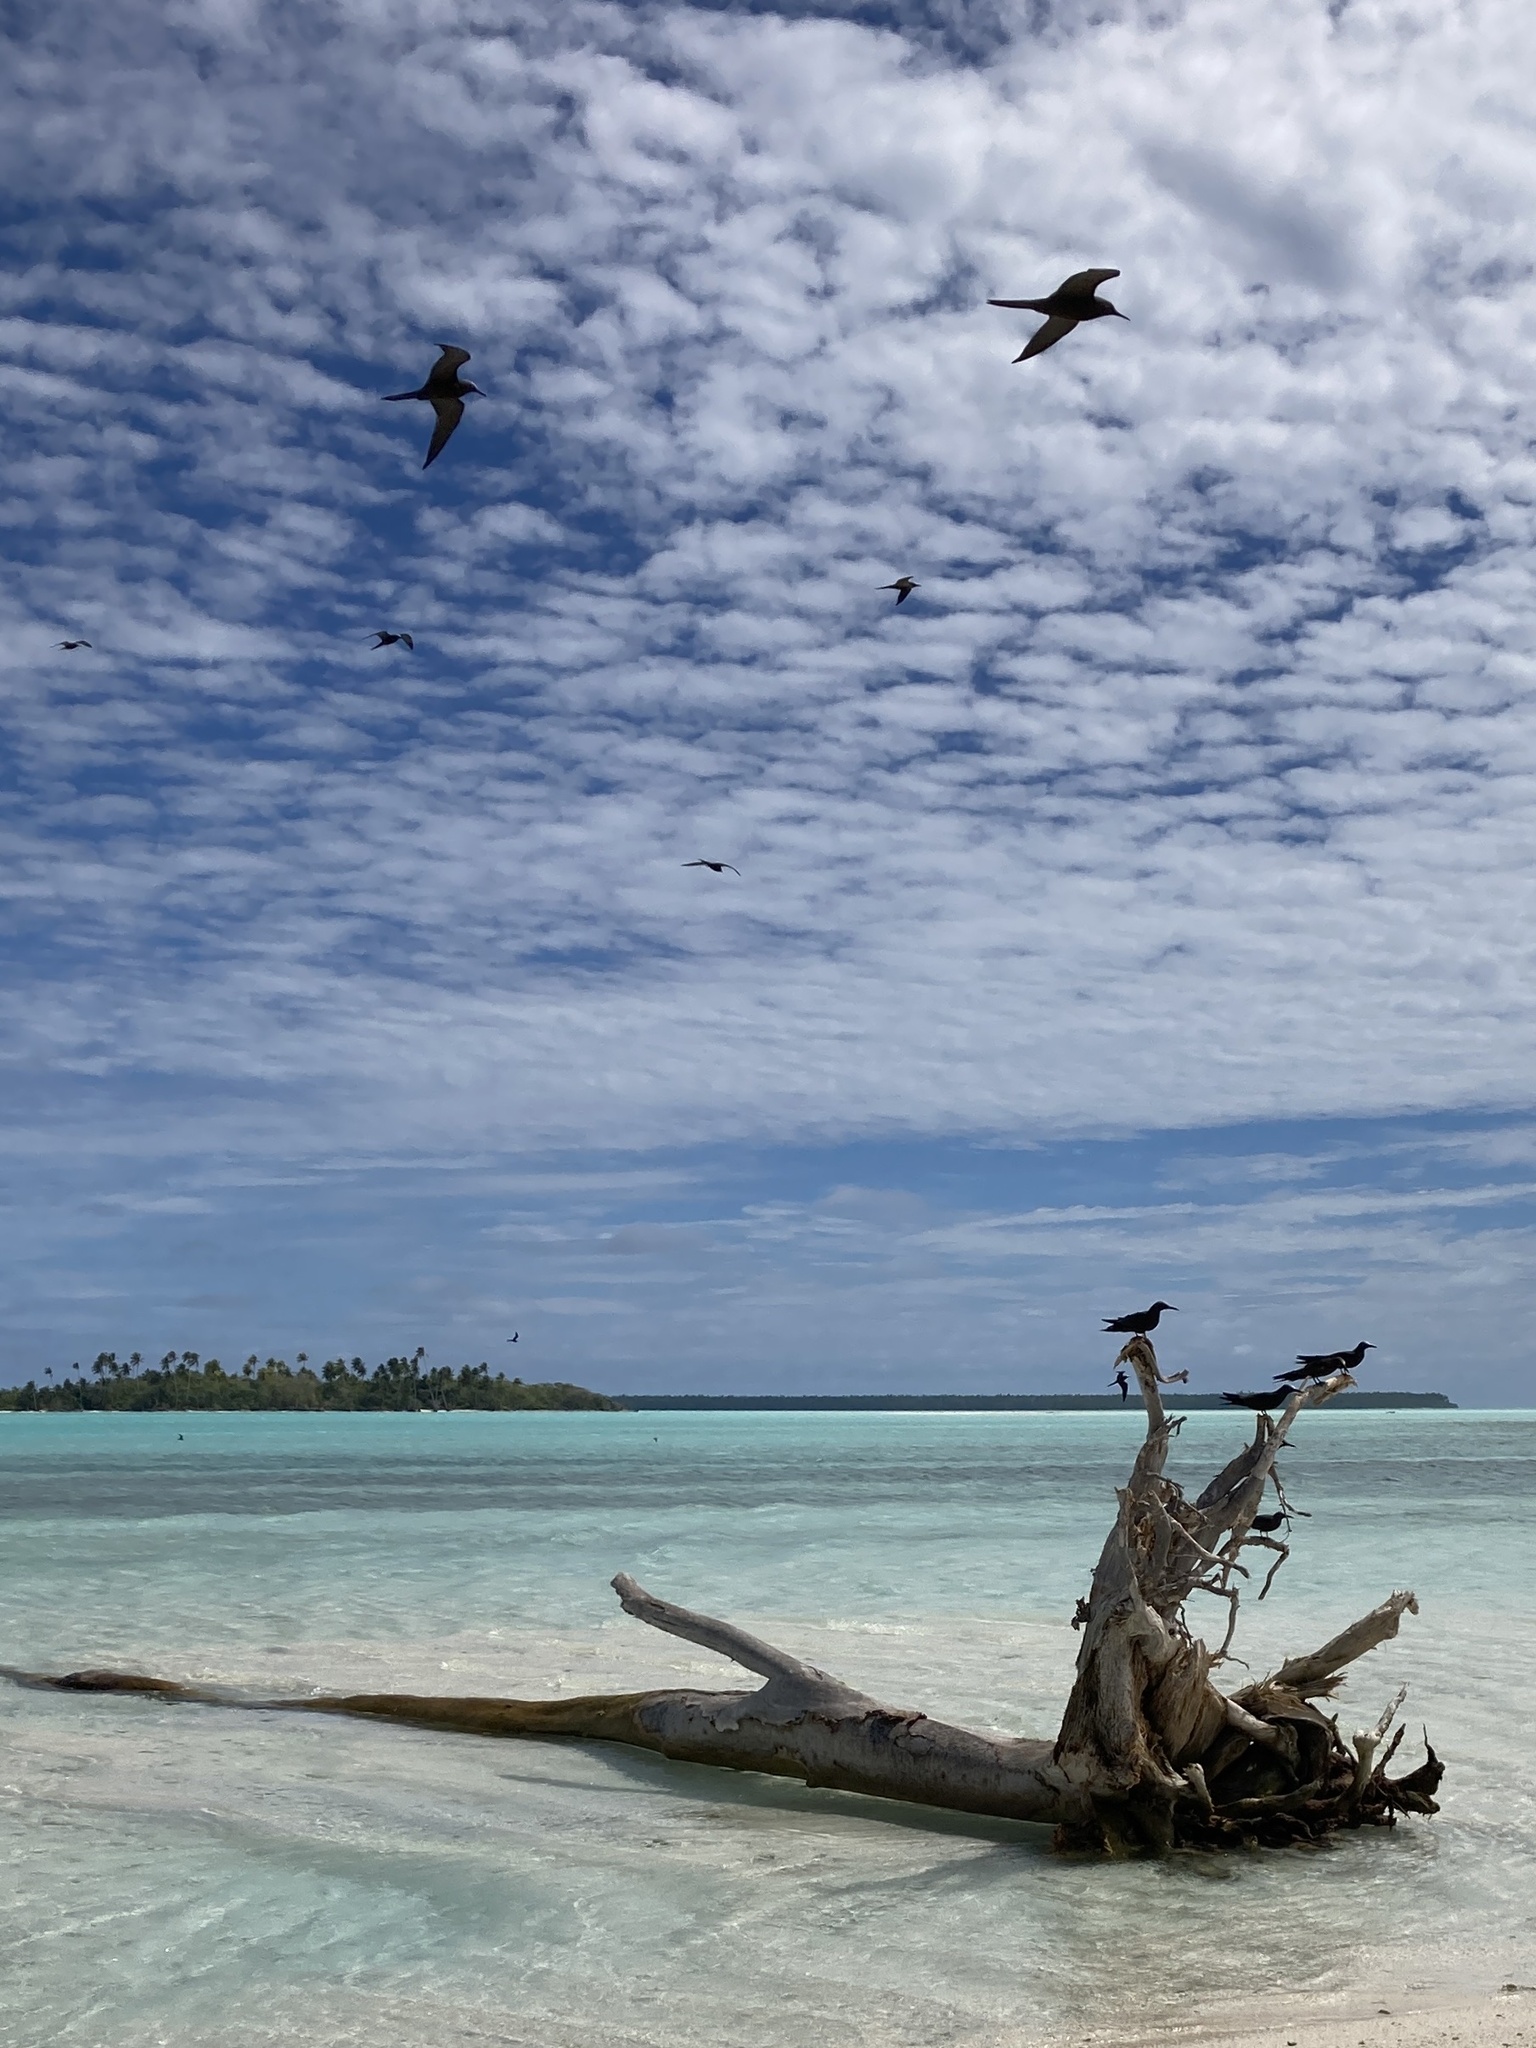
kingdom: Animalia
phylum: Chordata
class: Aves
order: Charadriiformes
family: Laridae
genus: Anous
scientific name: Anous stolidus
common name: Brown noddy
